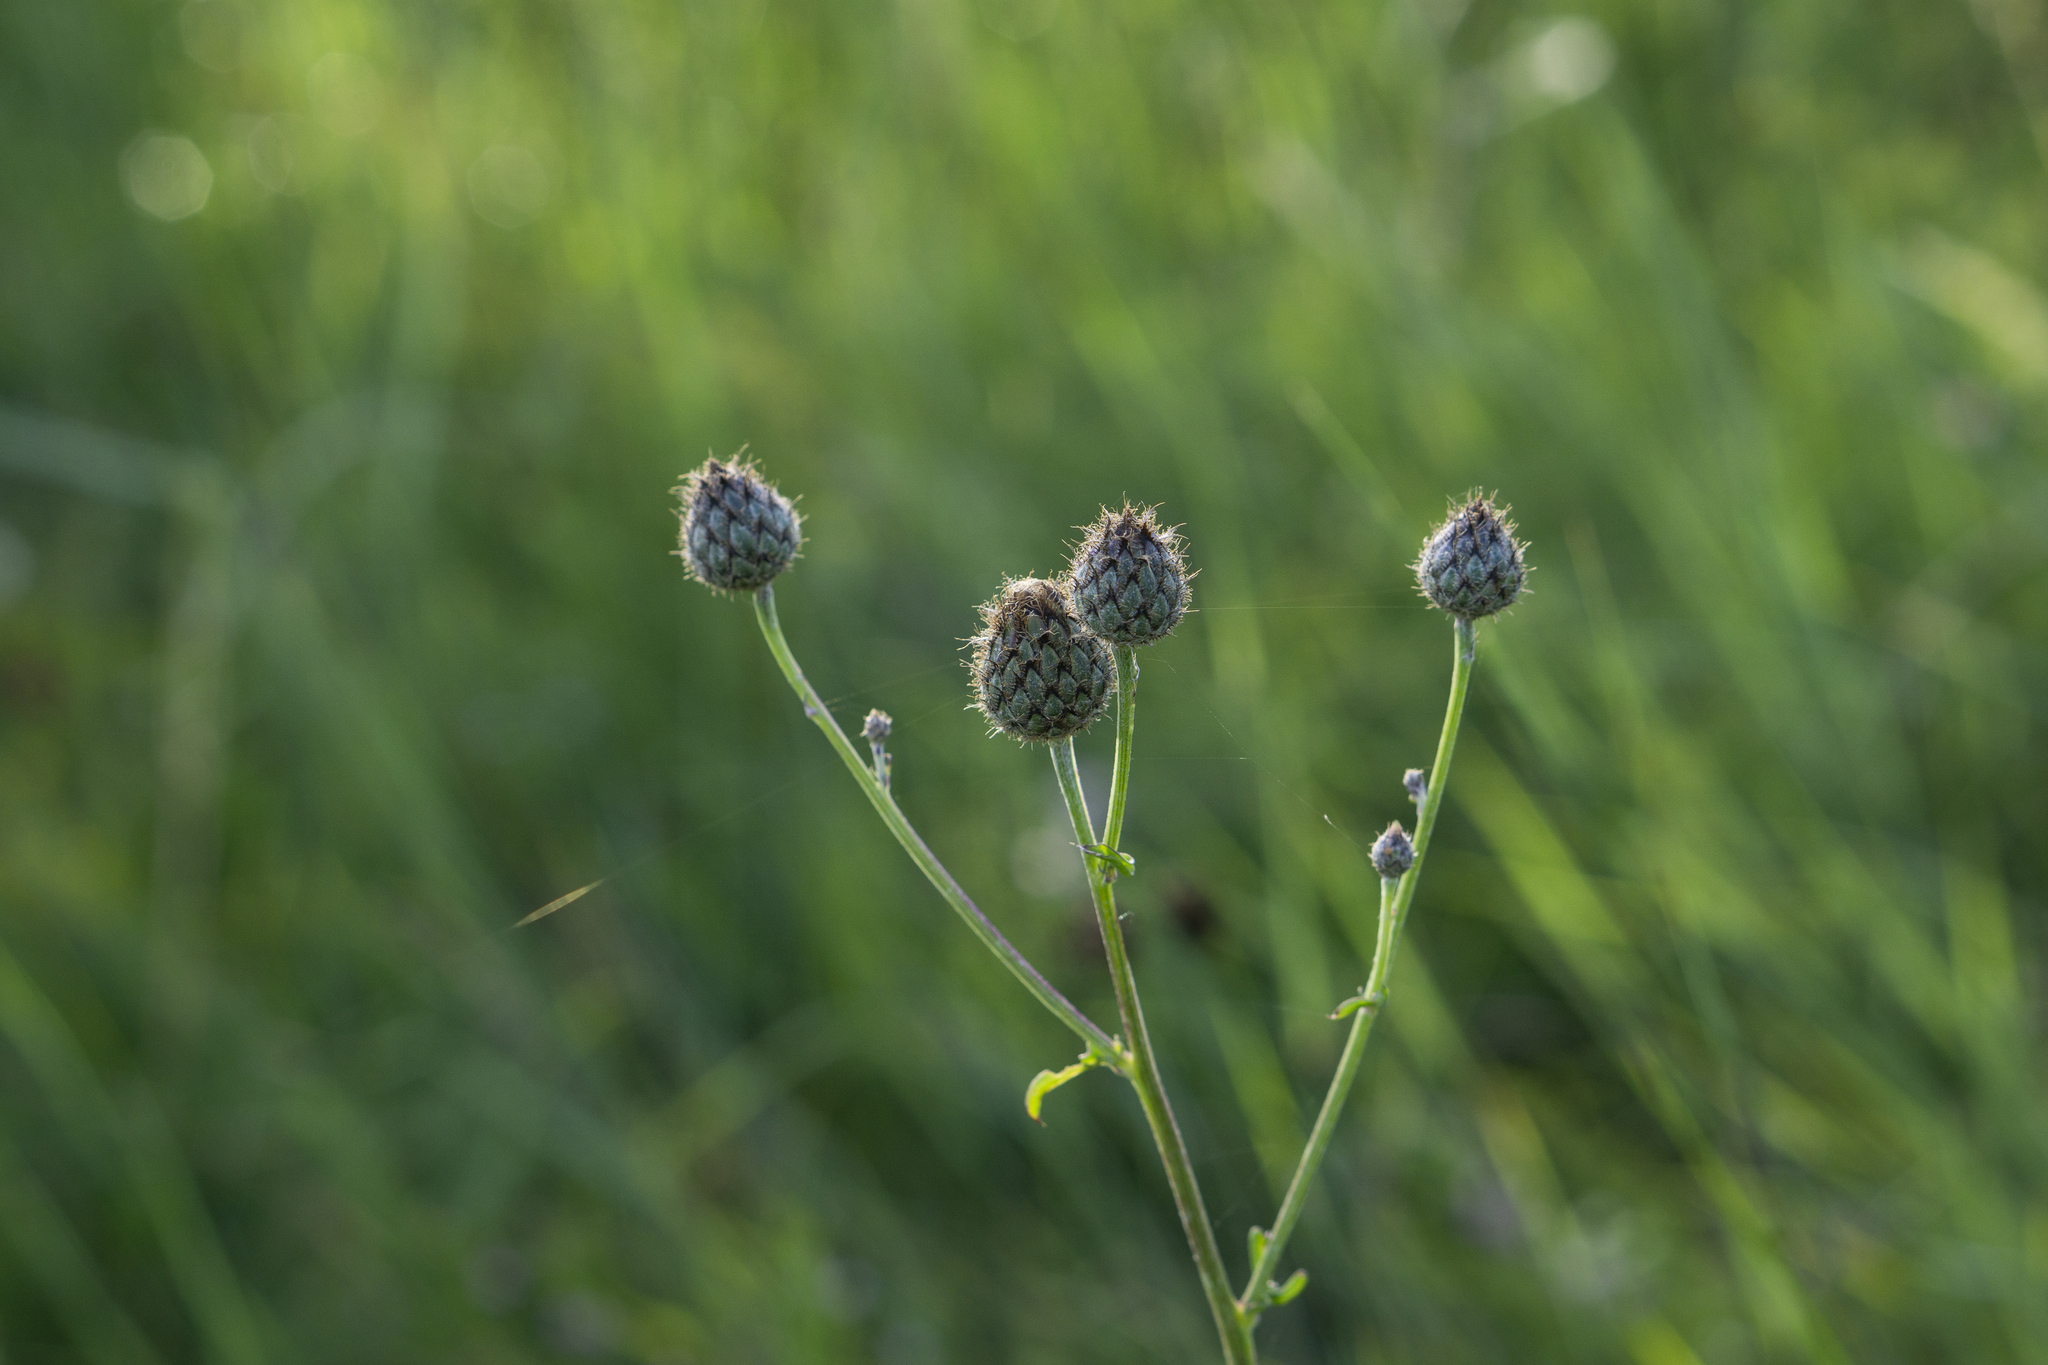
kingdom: Plantae
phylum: Tracheophyta
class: Magnoliopsida
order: Asterales
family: Asteraceae
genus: Centaurea
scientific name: Centaurea apiculata
